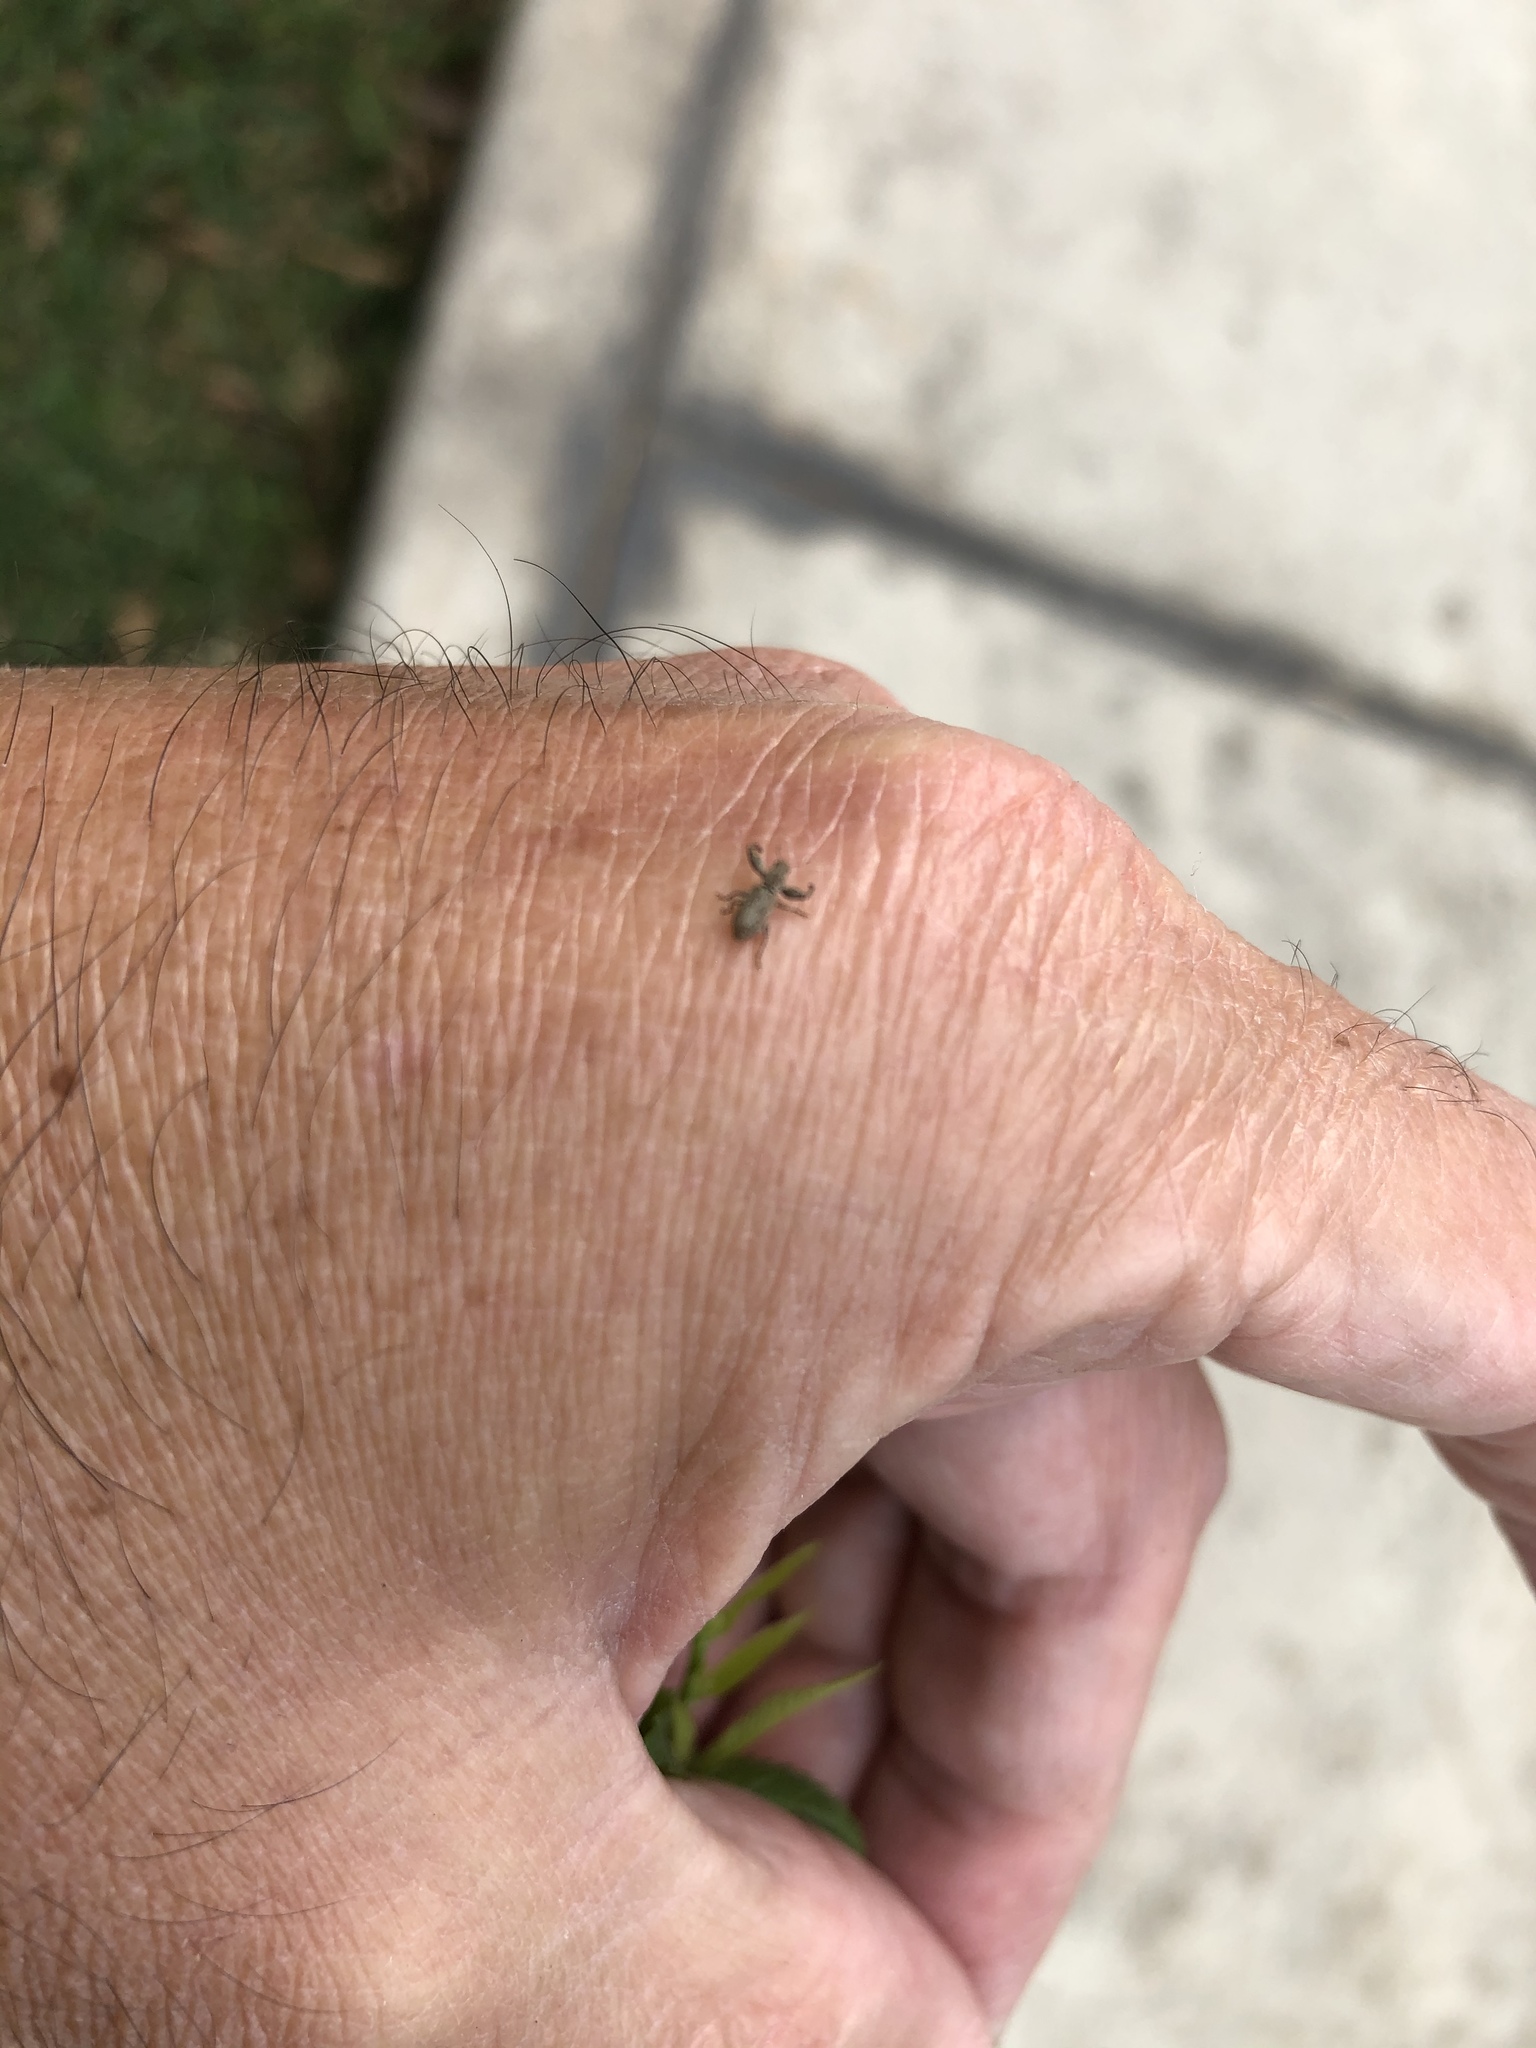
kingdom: Animalia
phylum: Arthropoda
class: Insecta
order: Coleoptera
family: Curculionidae
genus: Pandeleteius
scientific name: Pandeleteius variegatus
